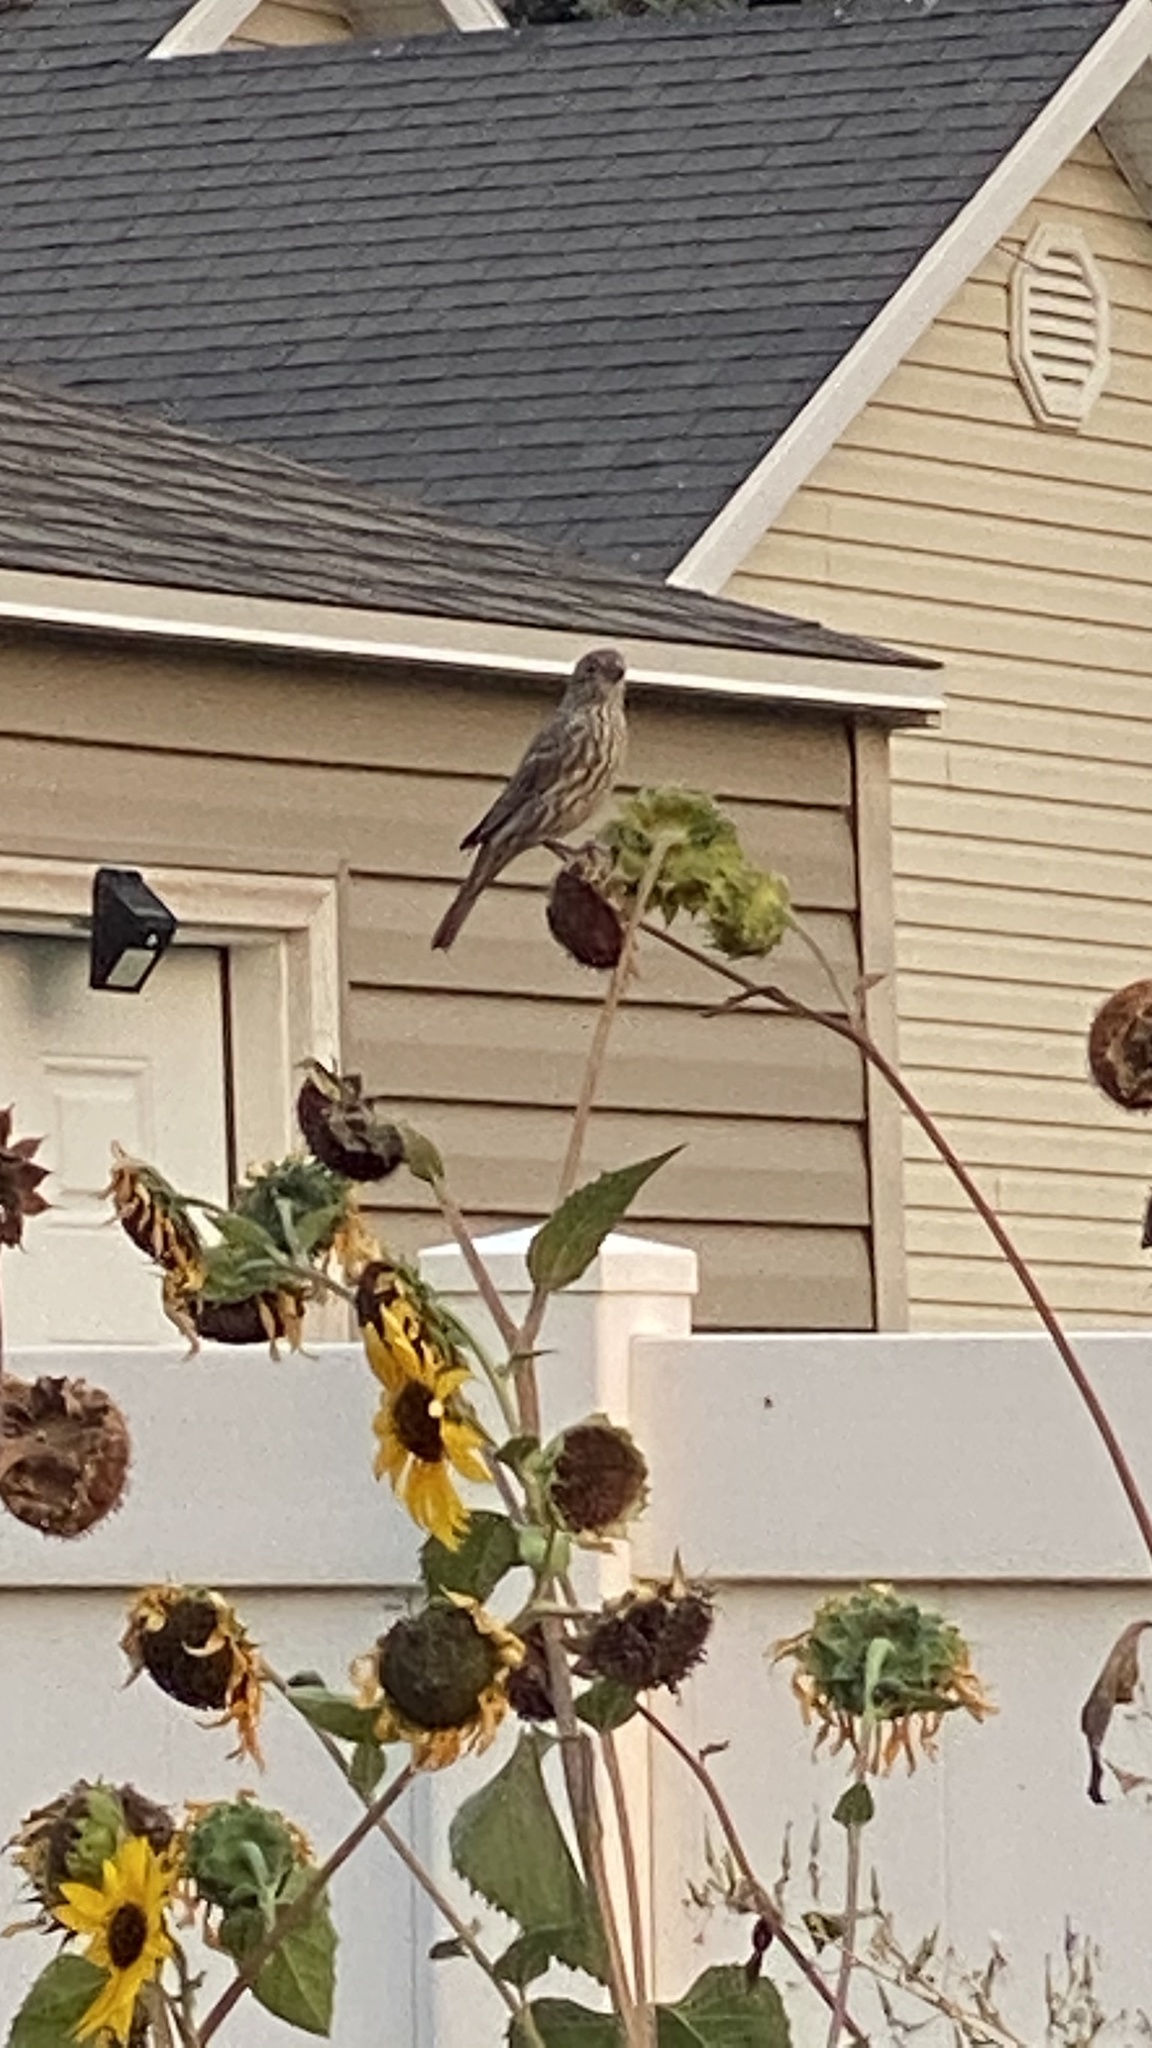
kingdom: Animalia
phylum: Chordata
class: Aves
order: Passeriformes
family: Fringillidae
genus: Haemorhous
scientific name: Haemorhous mexicanus
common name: House finch
